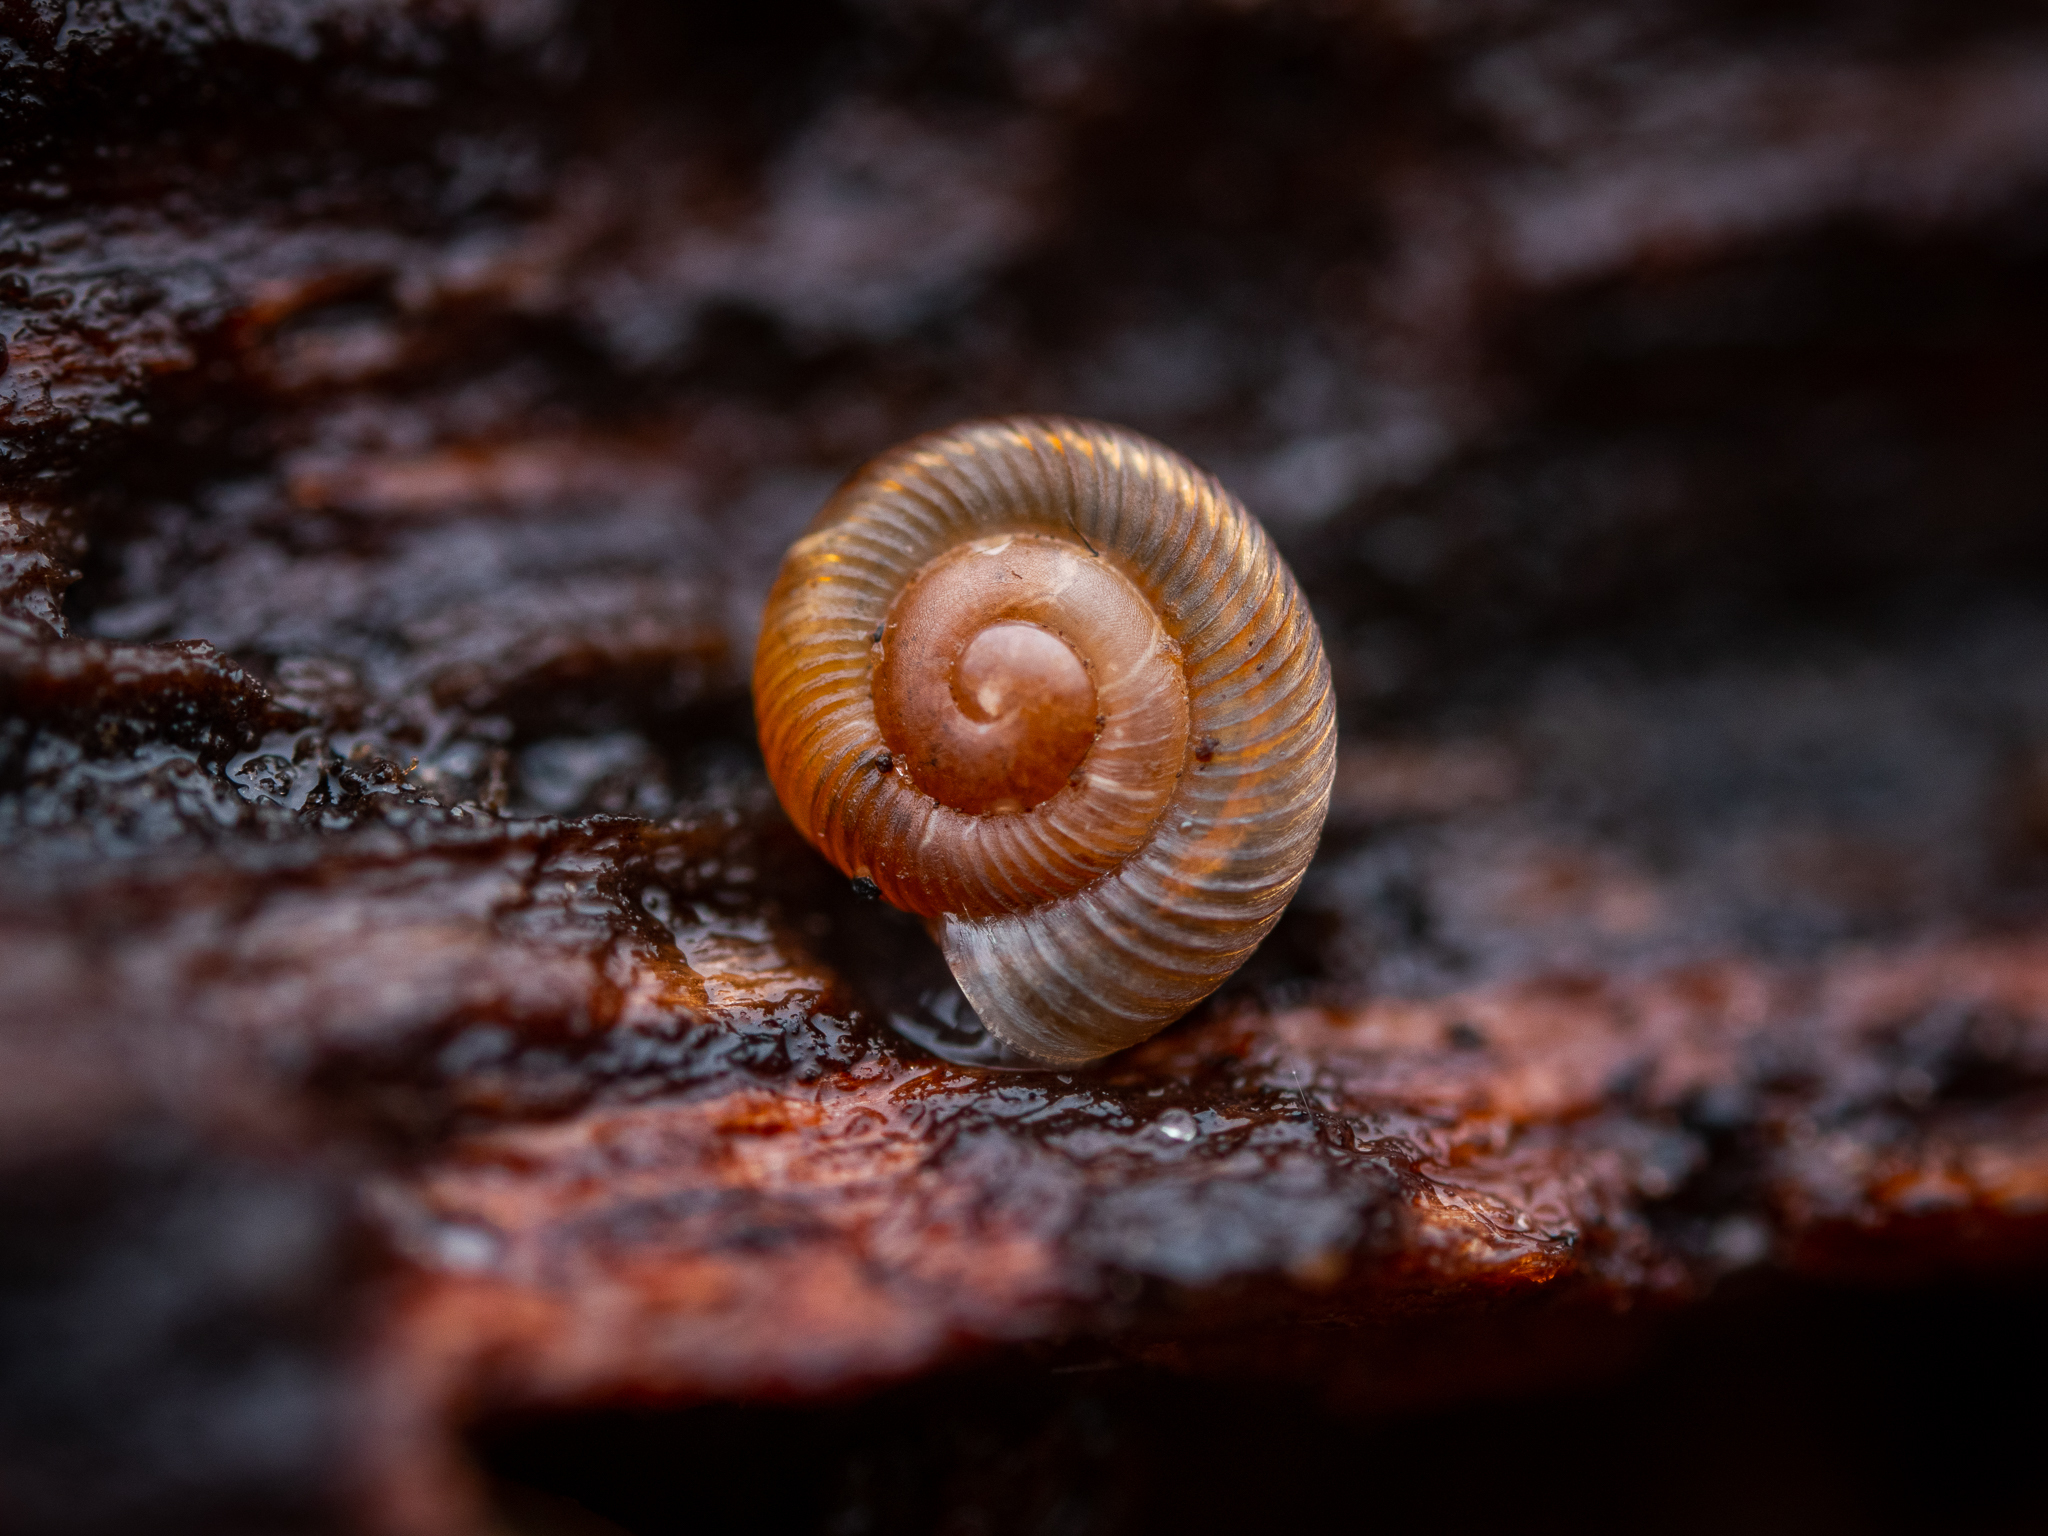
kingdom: Animalia
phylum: Mollusca
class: Gastropoda
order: Stylommatophora
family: Discidae
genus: Discus
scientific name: Discus rotundatus
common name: Rounded snail
